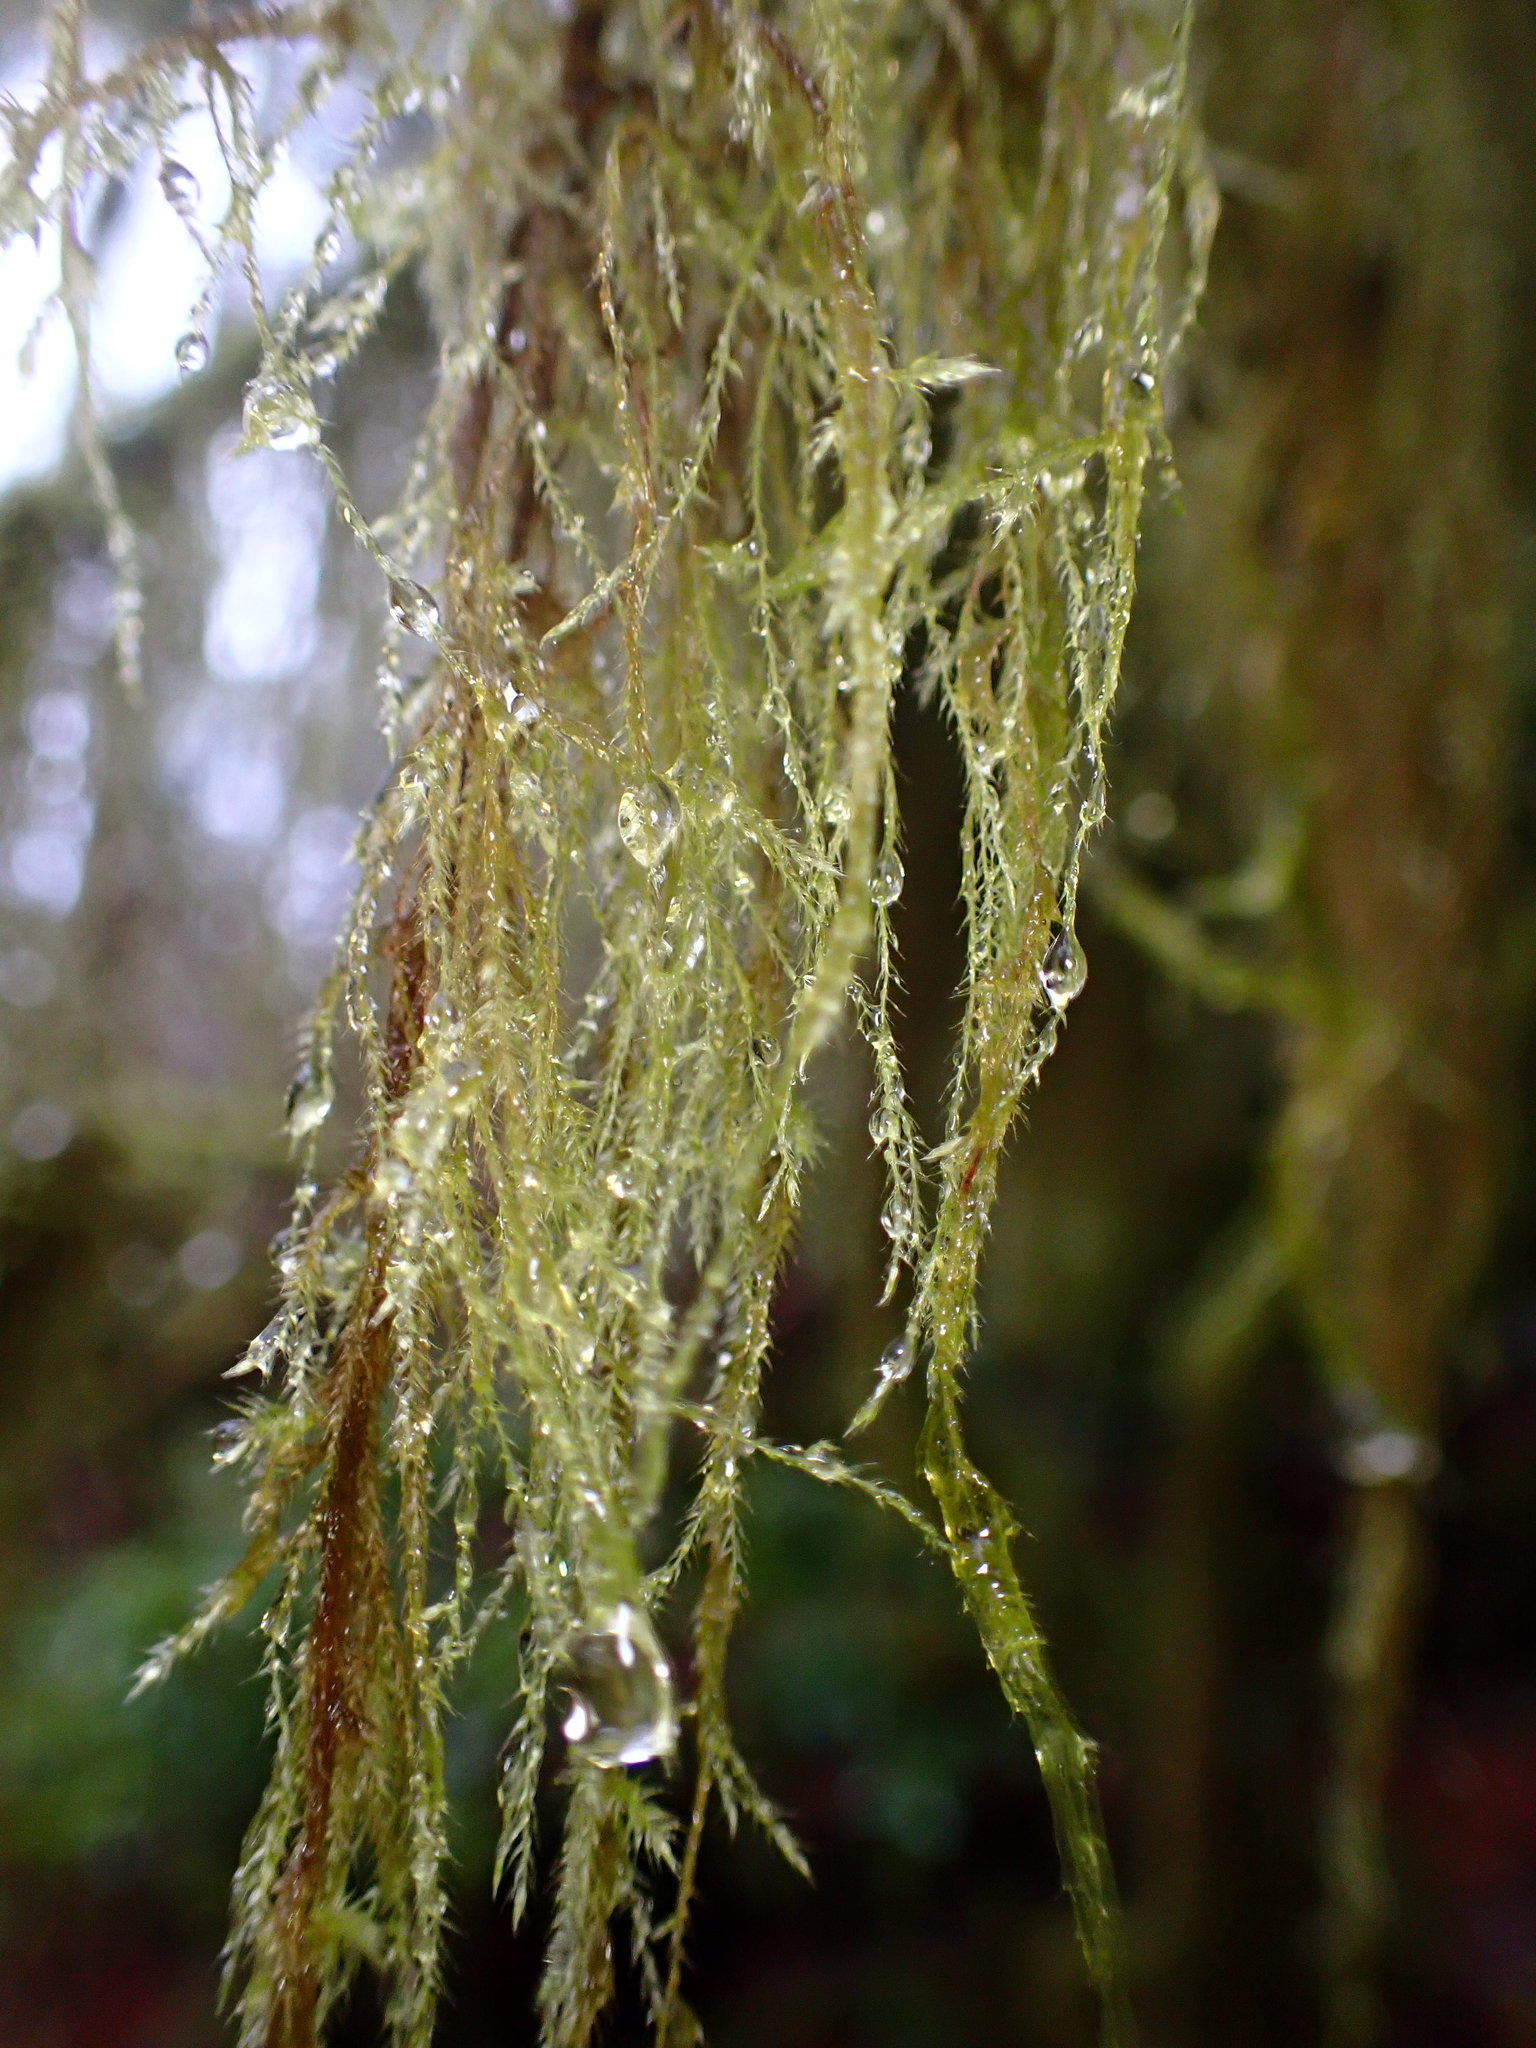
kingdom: Plantae
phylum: Bryophyta
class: Bryopsida
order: Hypnales
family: Lembophyllaceae
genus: Pseudisothecium
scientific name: Pseudisothecium stoloniferum
